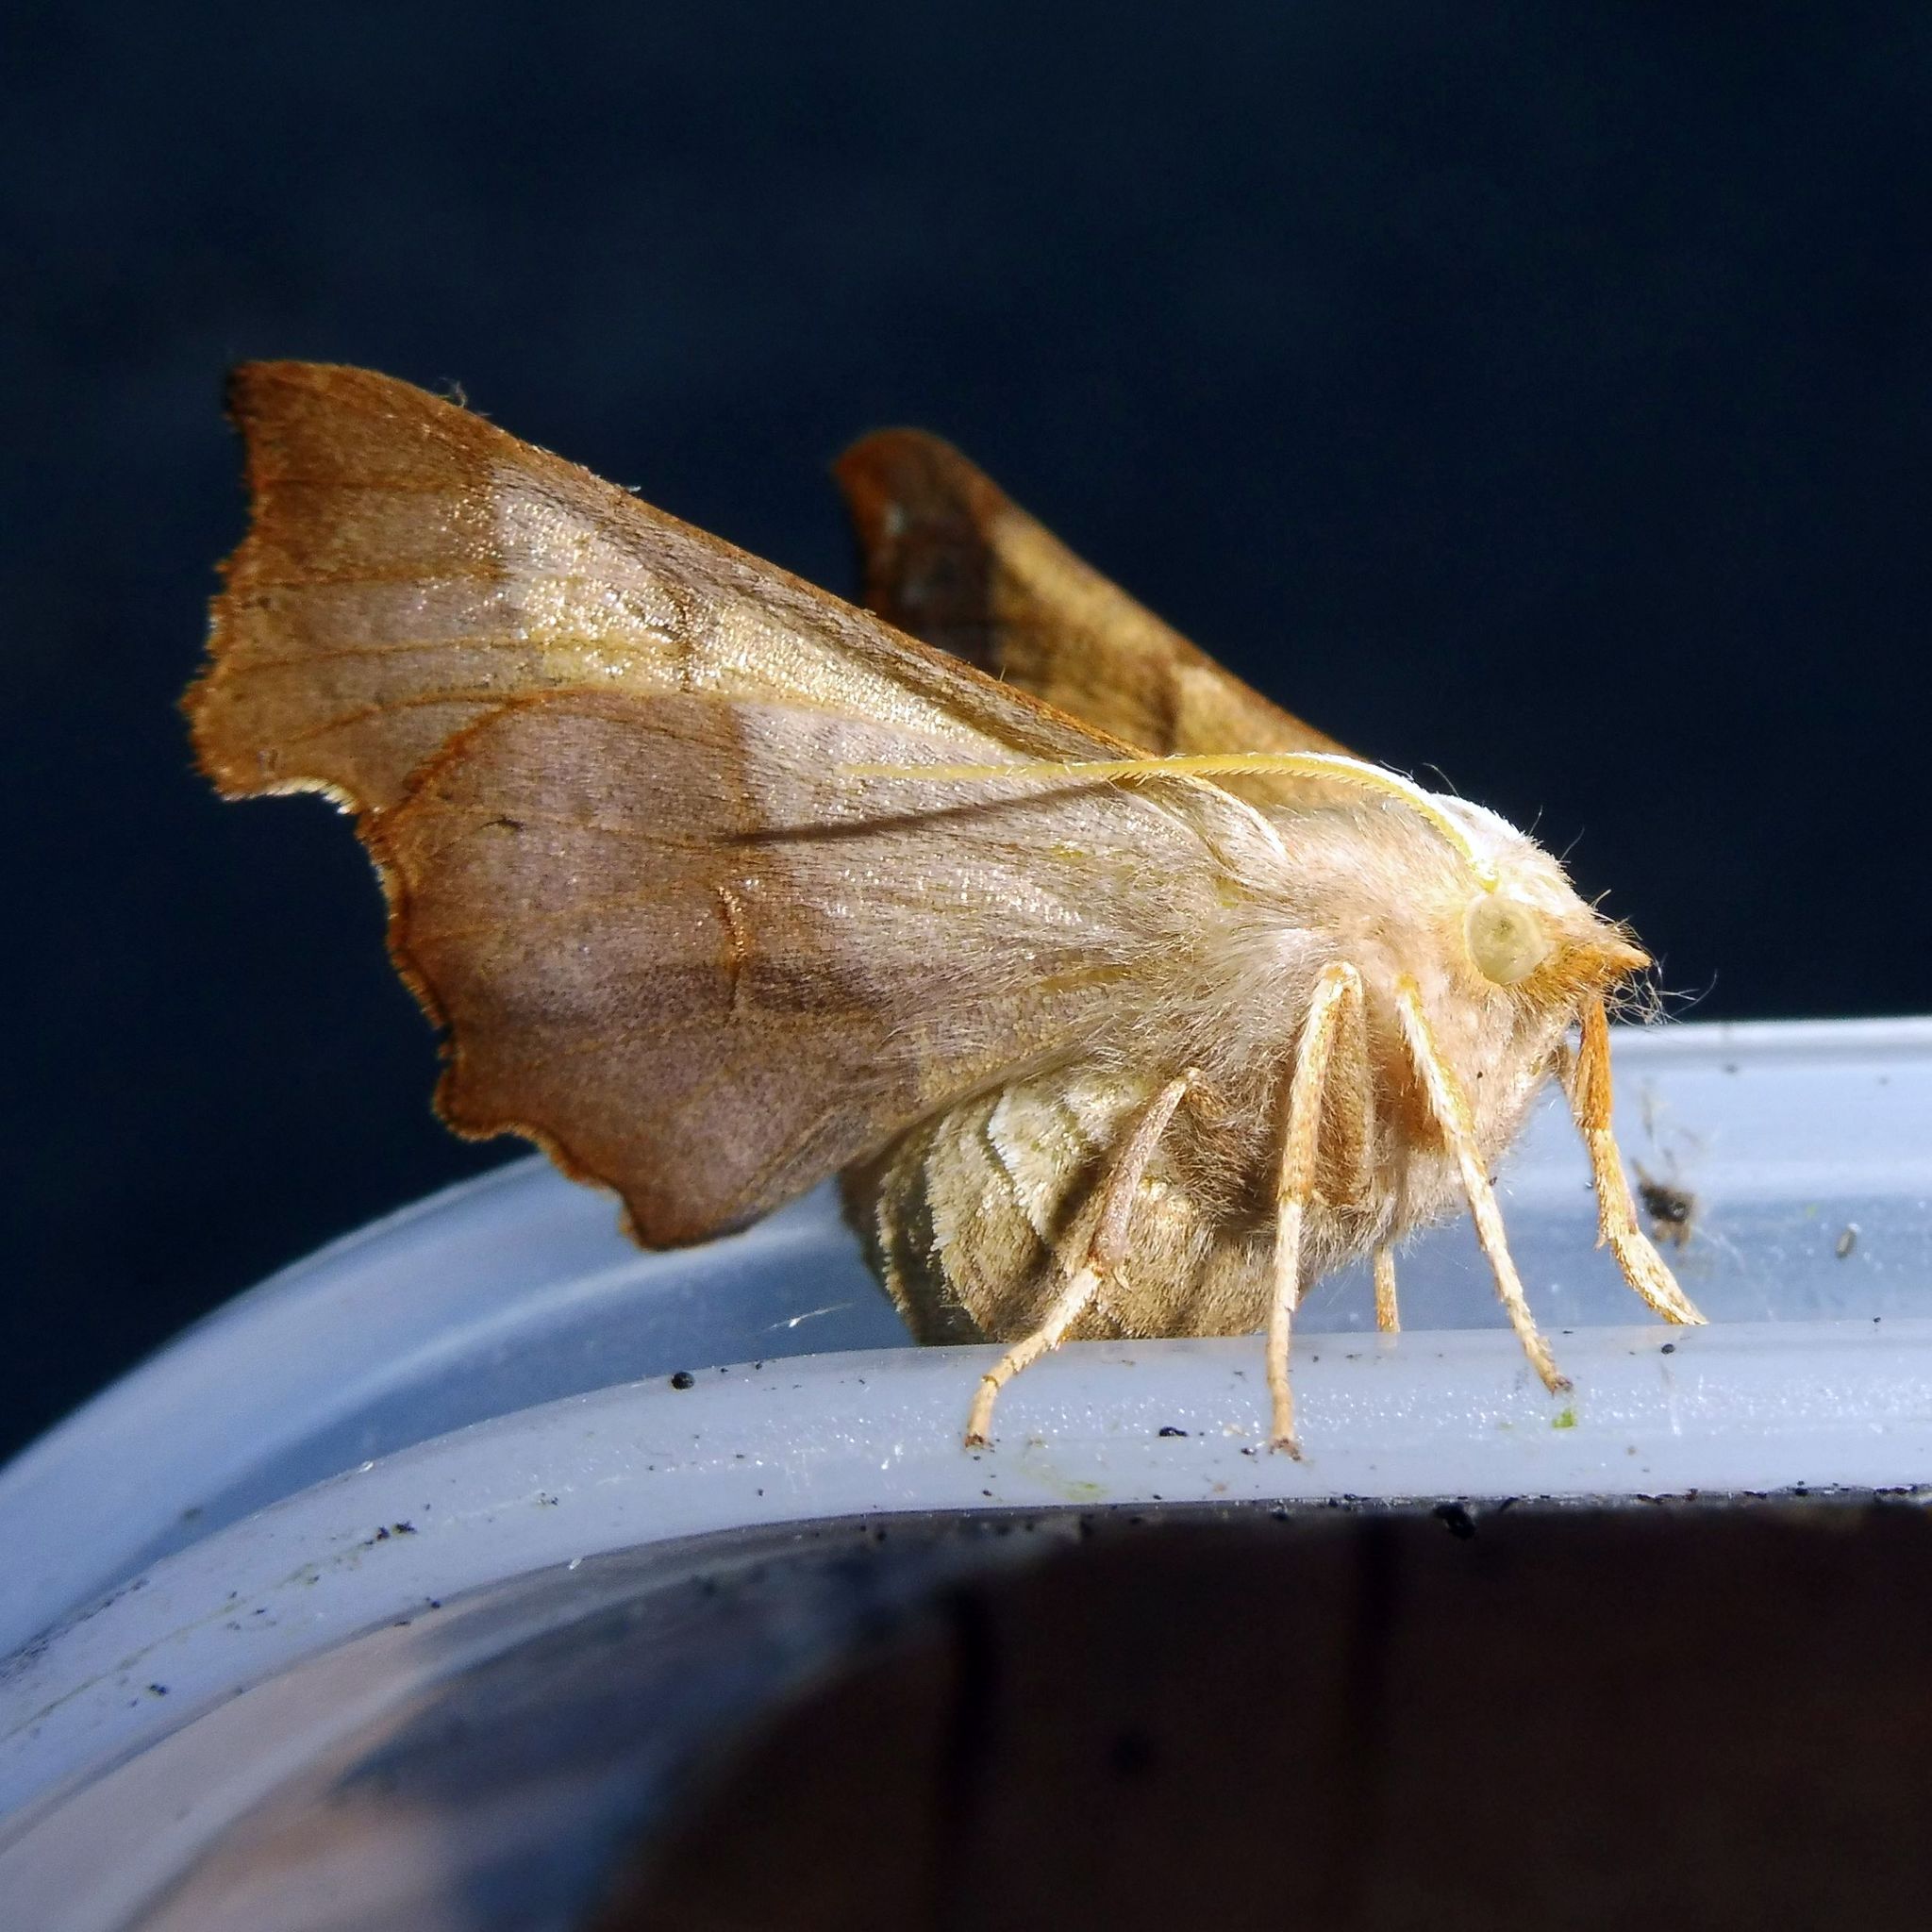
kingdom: Animalia
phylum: Arthropoda
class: Insecta
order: Lepidoptera
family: Geometridae
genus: Ennomos
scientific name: Ennomos fuscantaria
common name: Dusky thorn
